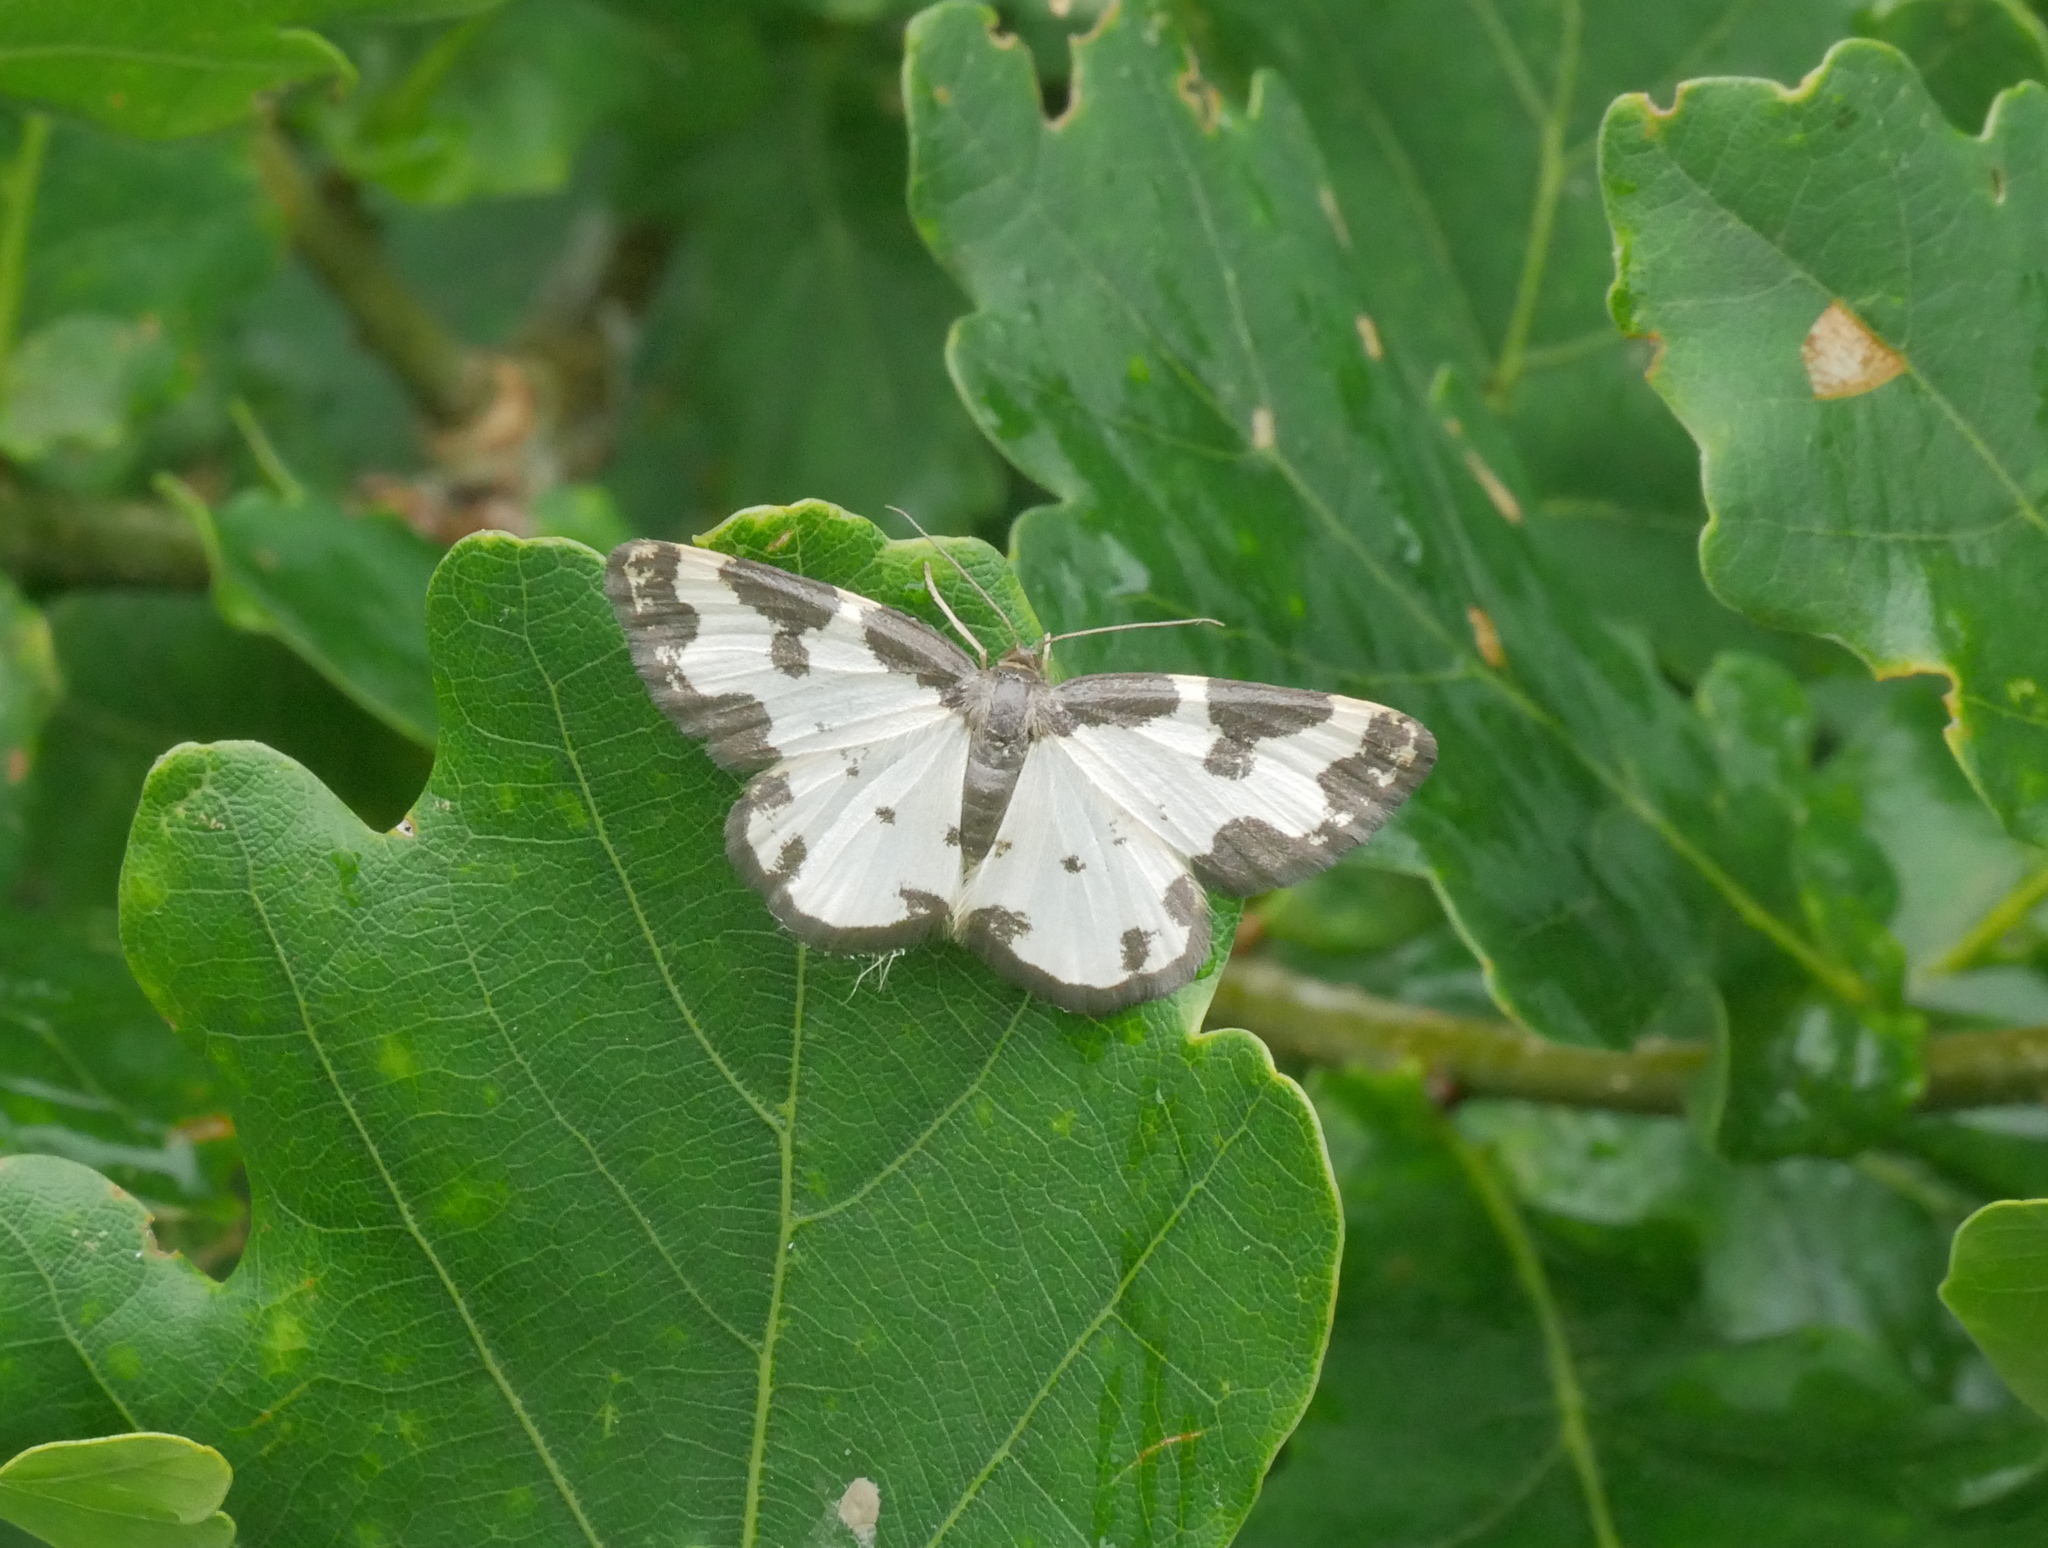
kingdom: Animalia
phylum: Arthropoda
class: Insecta
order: Lepidoptera
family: Geometridae
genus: Lomaspilis
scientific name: Lomaspilis marginata
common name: Clouded border
